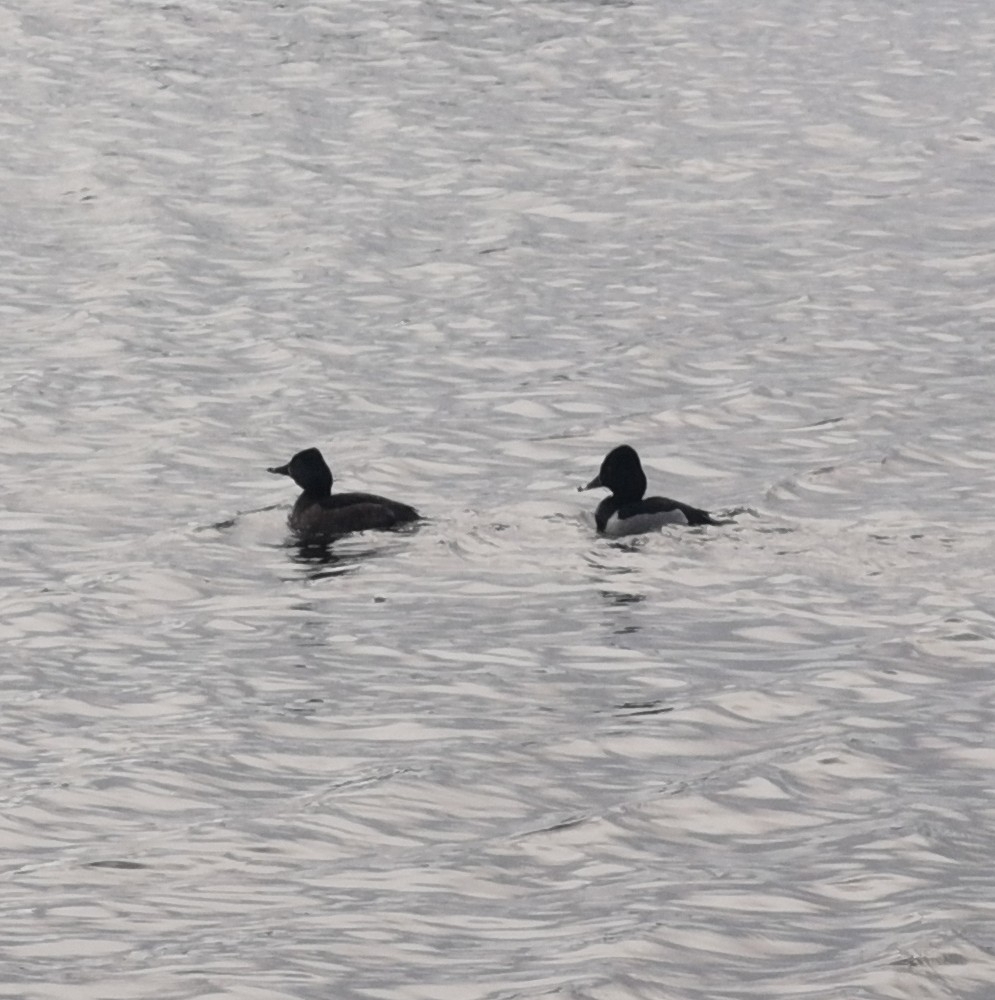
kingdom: Animalia
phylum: Chordata
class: Aves
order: Anseriformes
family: Anatidae
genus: Aythya
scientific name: Aythya collaris
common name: Ring-necked duck
